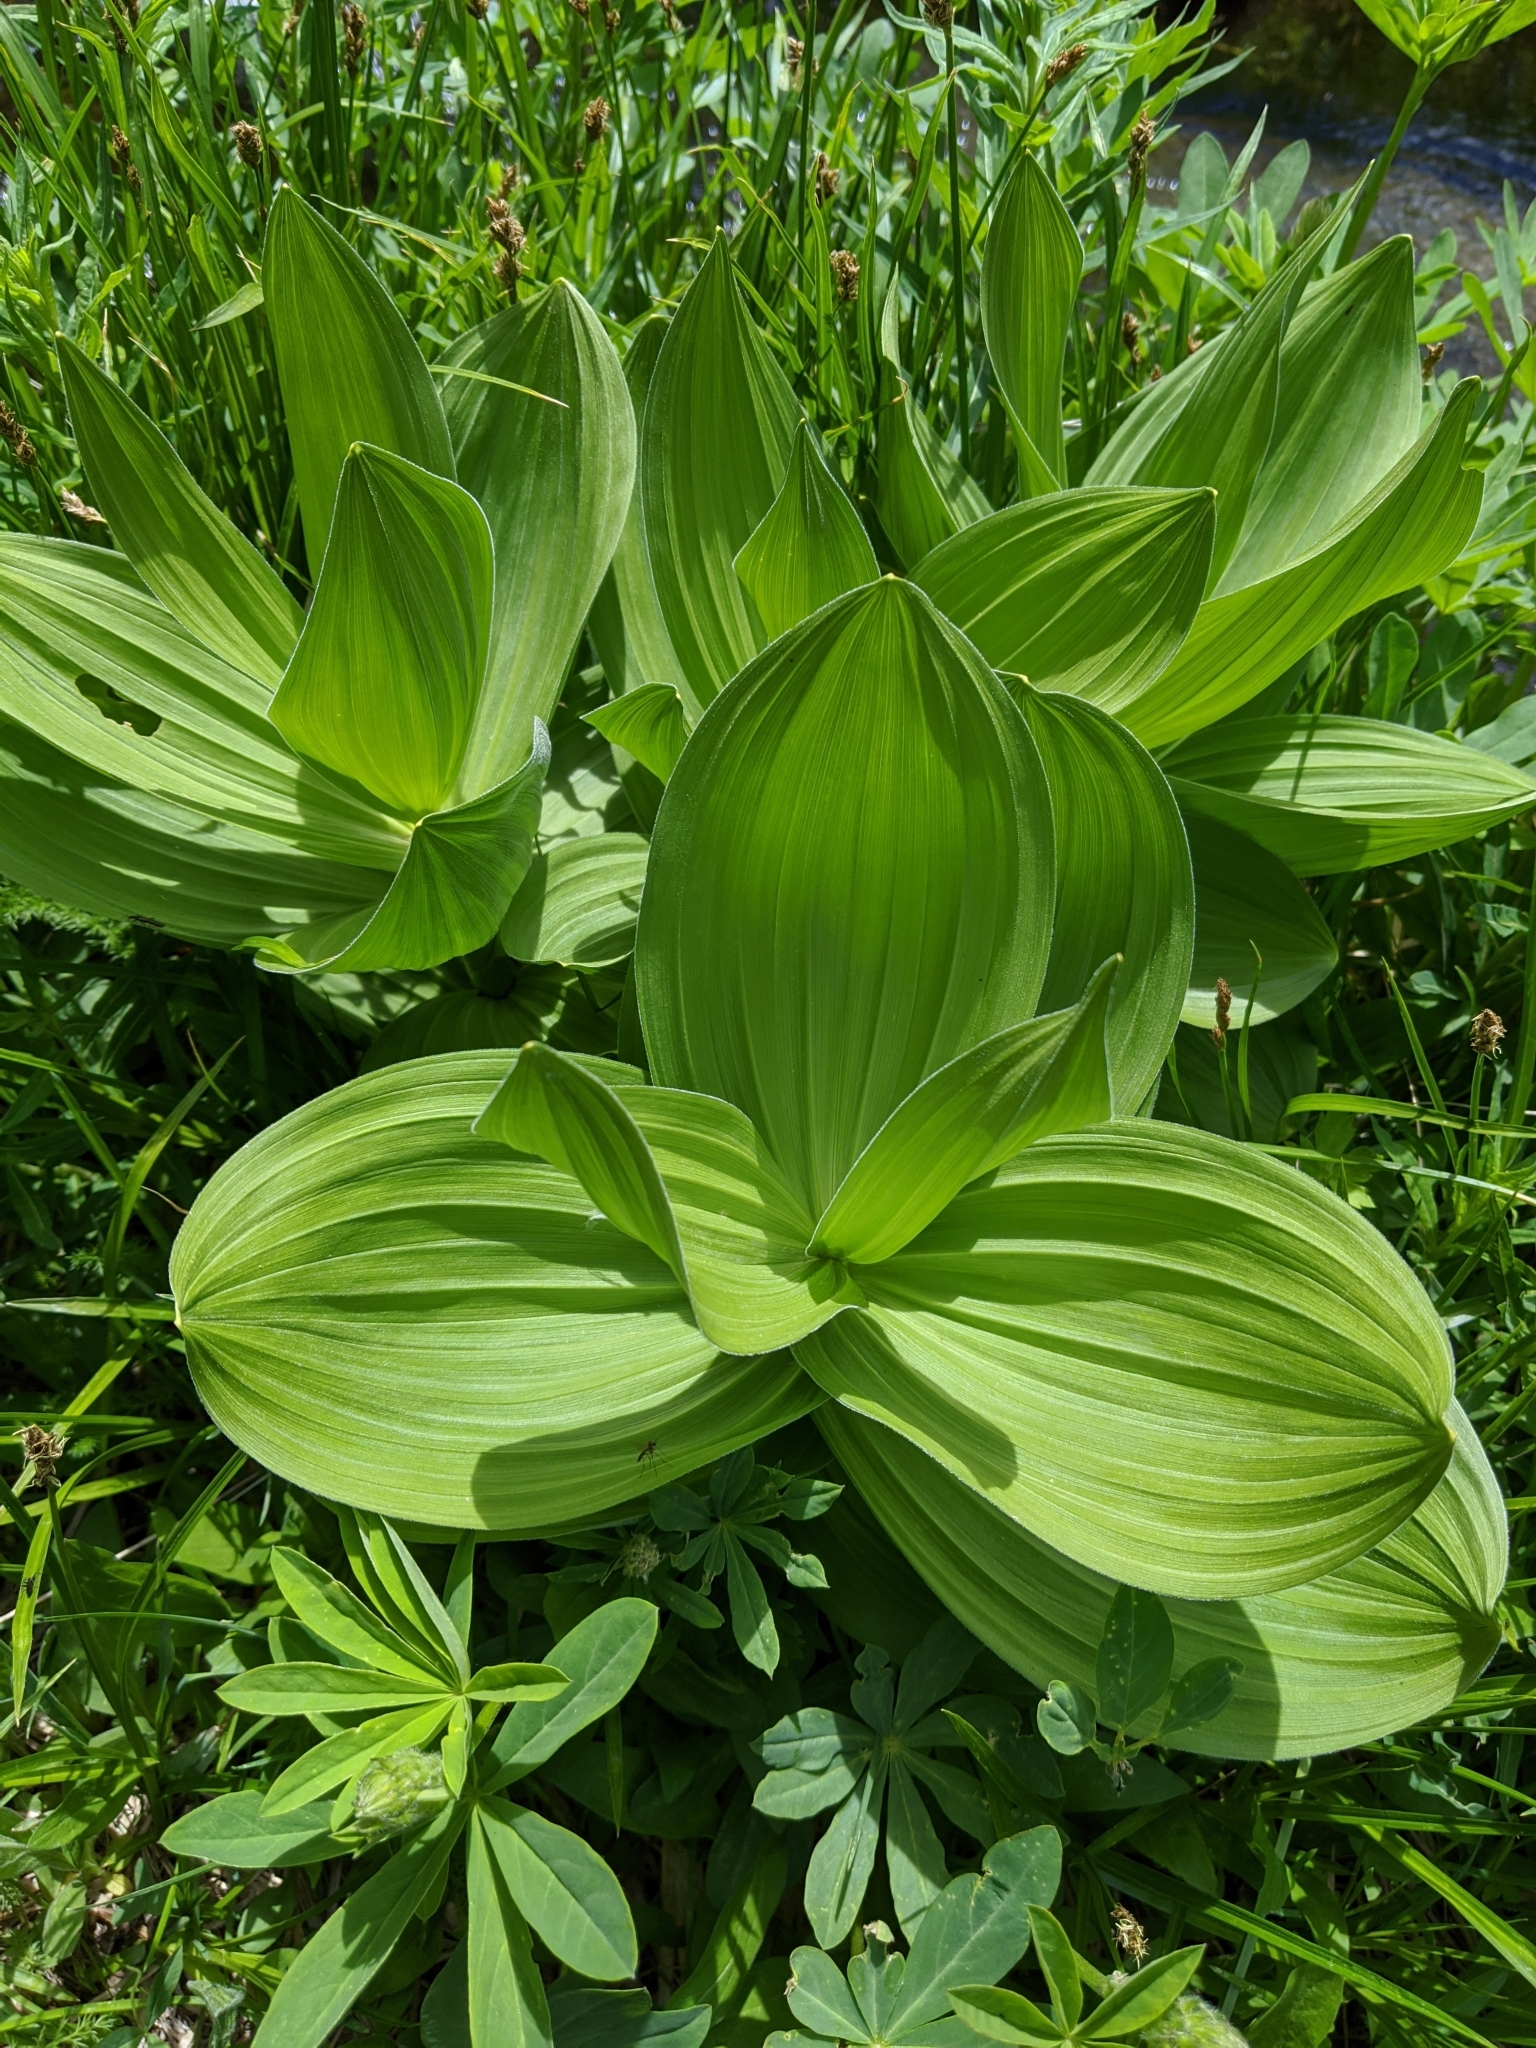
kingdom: Plantae
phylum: Tracheophyta
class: Liliopsida
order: Liliales
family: Melanthiaceae
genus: Veratrum
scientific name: Veratrum californicum
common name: California veratrum
